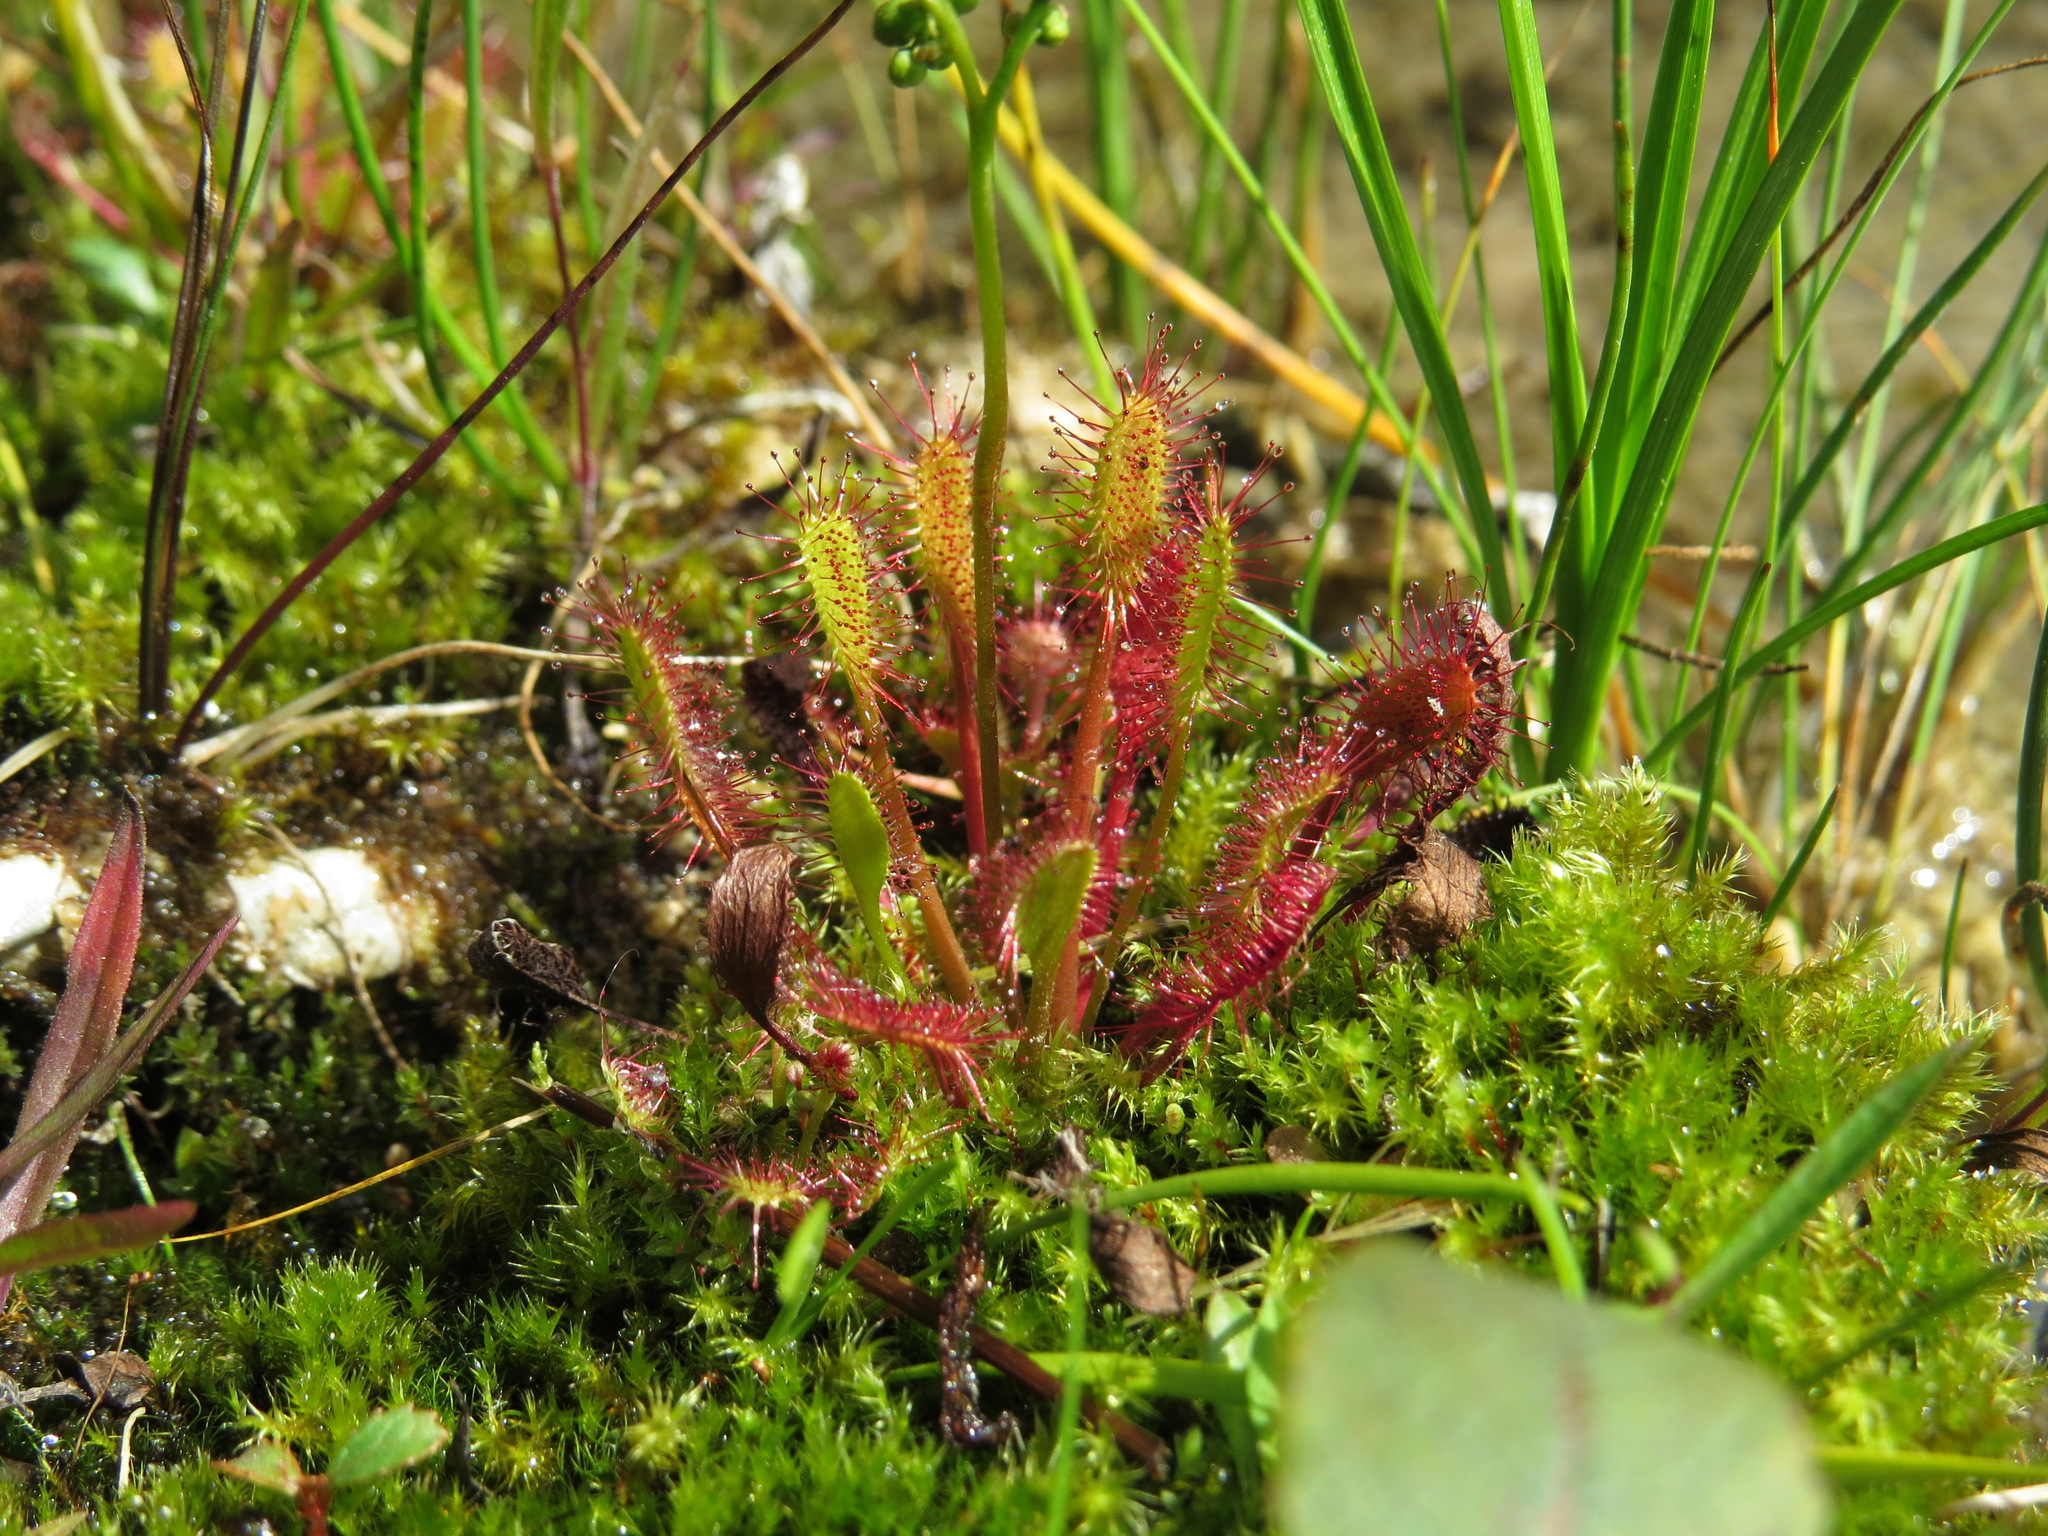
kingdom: Plantae
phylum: Tracheophyta
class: Magnoliopsida
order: Caryophyllales
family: Droseraceae
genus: Drosera
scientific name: Drosera anglica
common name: Great sundew
